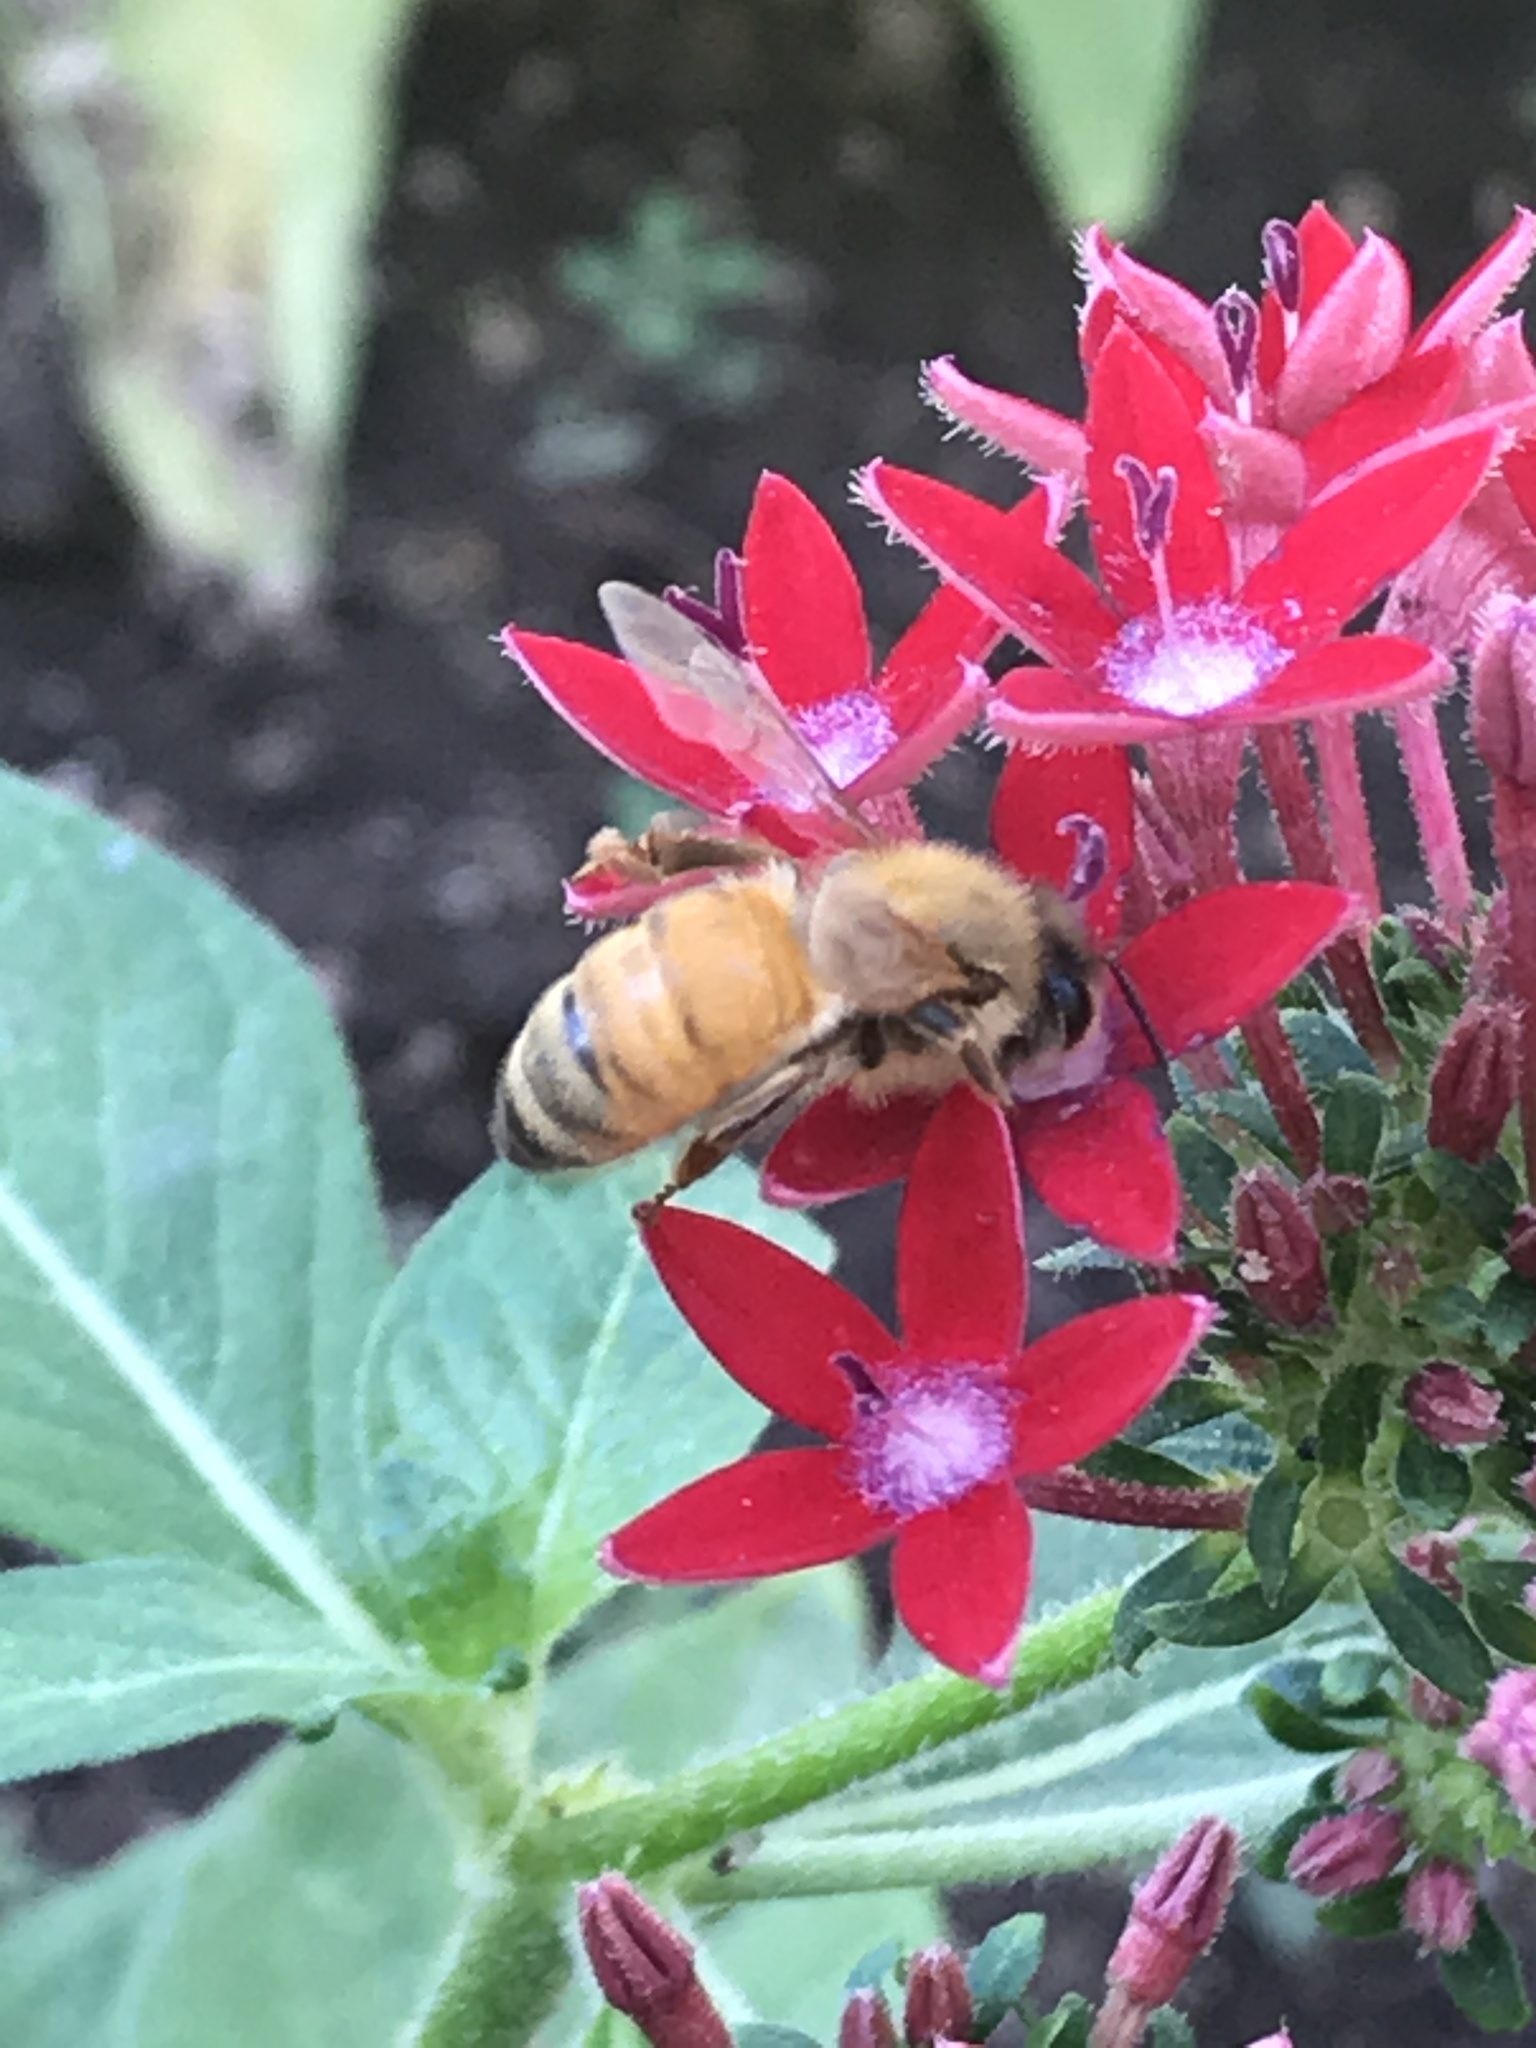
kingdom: Animalia
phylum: Arthropoda
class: Insecta
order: Hymenoptera
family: Apidae
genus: Apis
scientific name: Apis mellifera
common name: Honey bee
